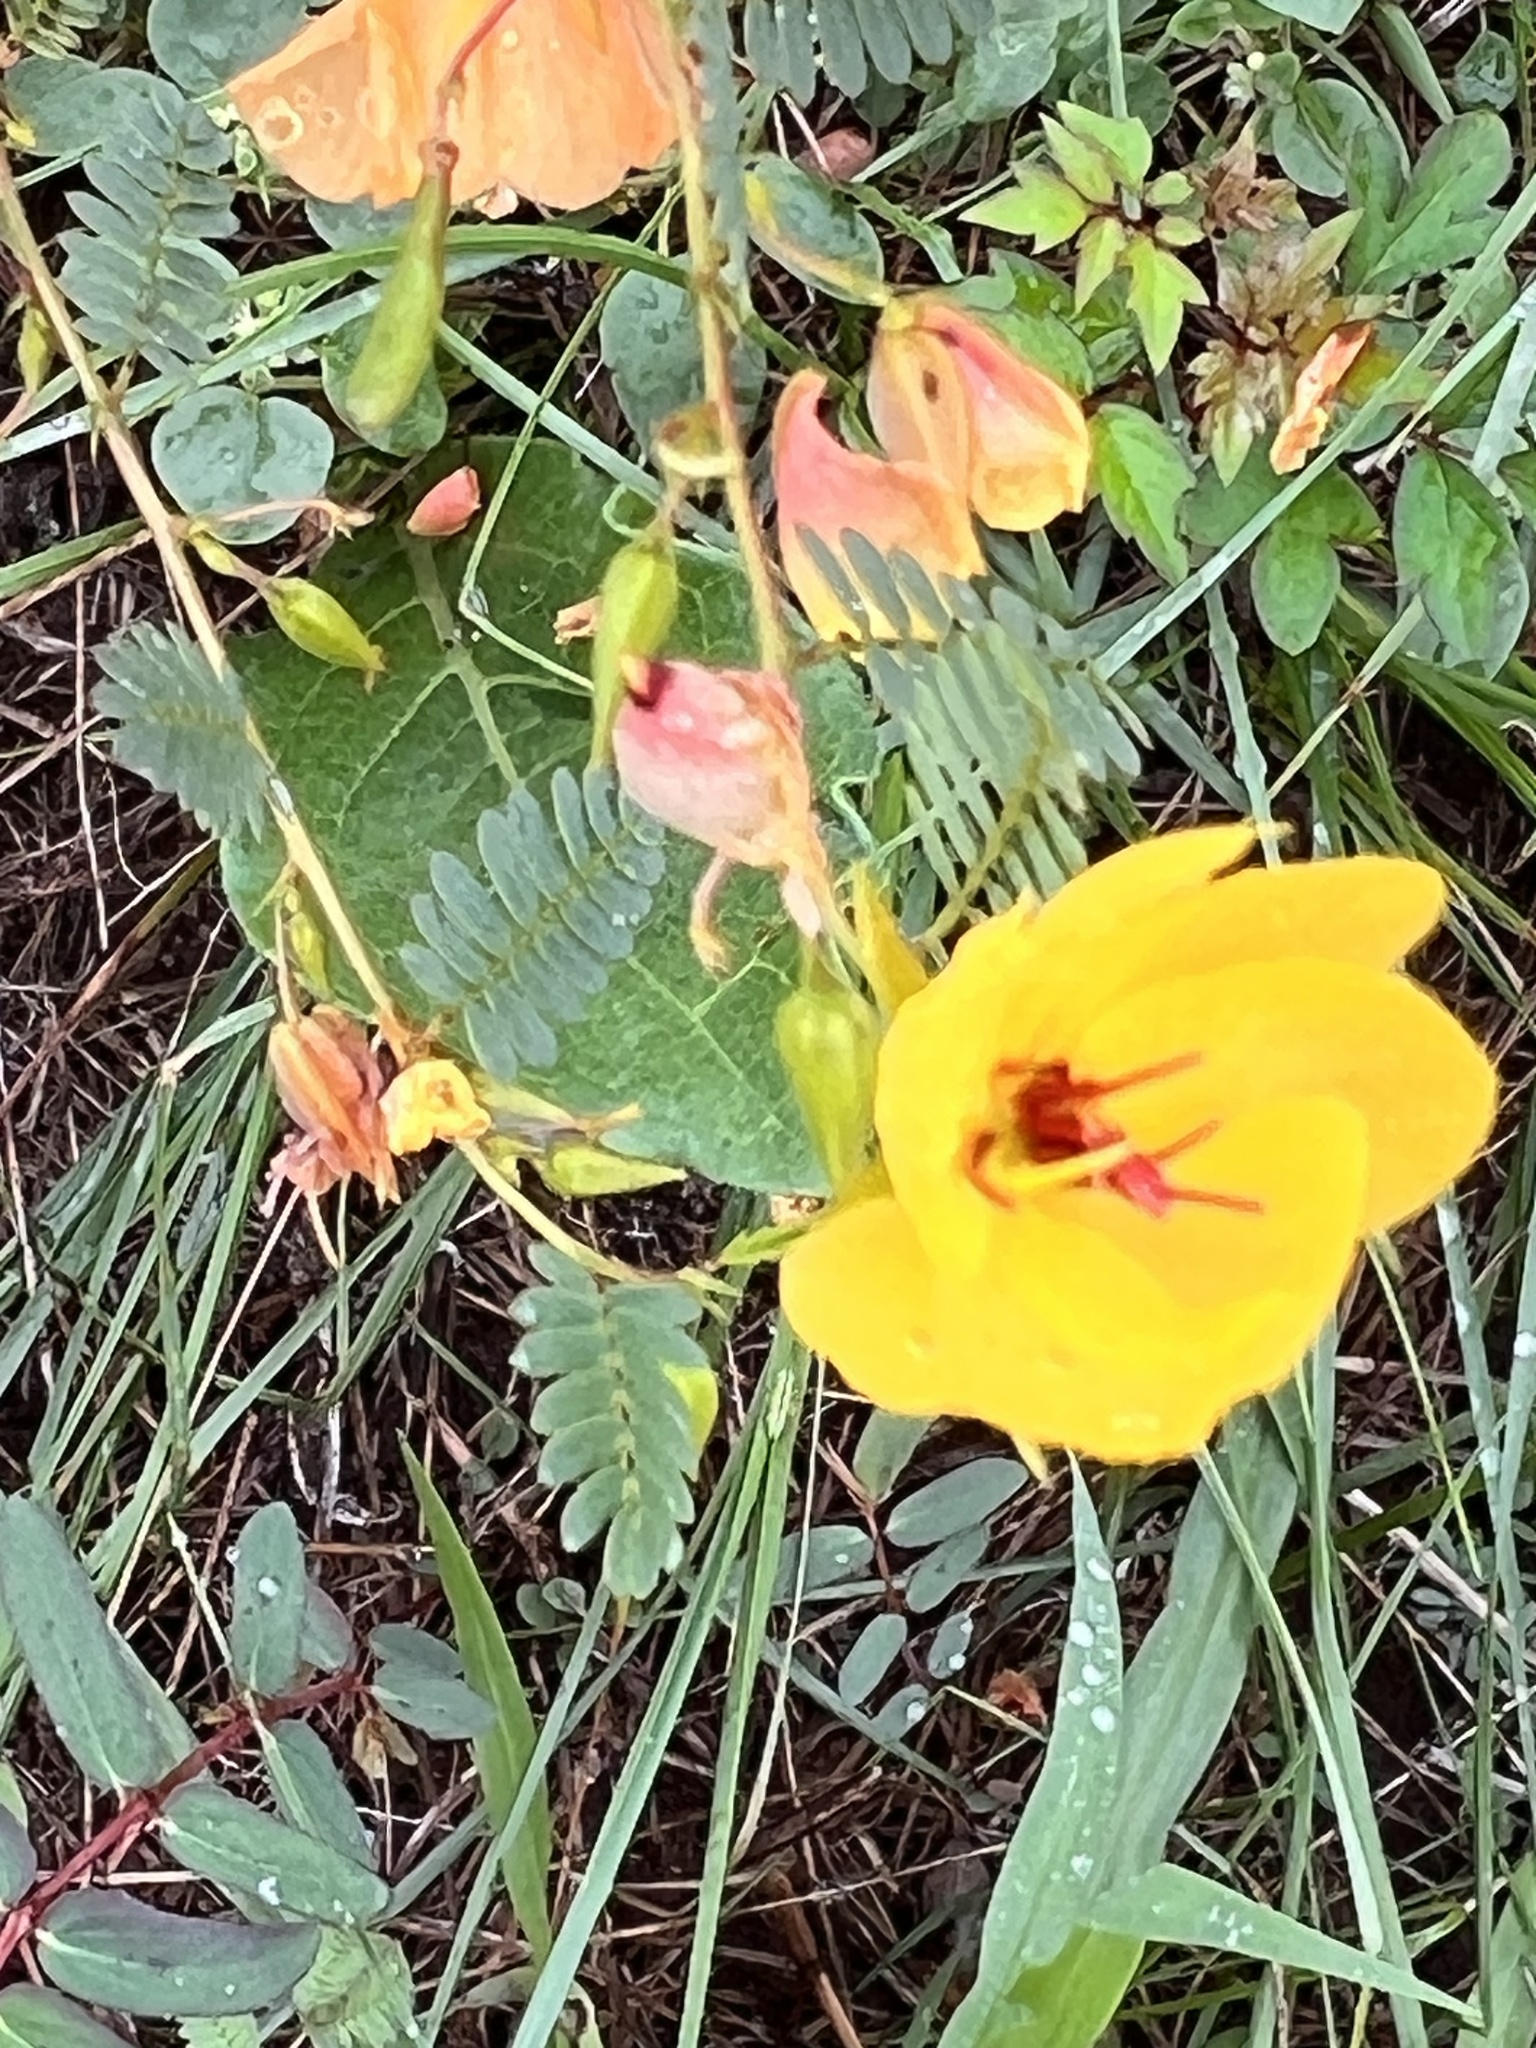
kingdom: Plantae
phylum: Tracheophyta
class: Magnoliopsida
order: Fabales
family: Fabaceae
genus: Chamaecrista
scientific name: Chamaecrista fasciculata
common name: Golden cassia
